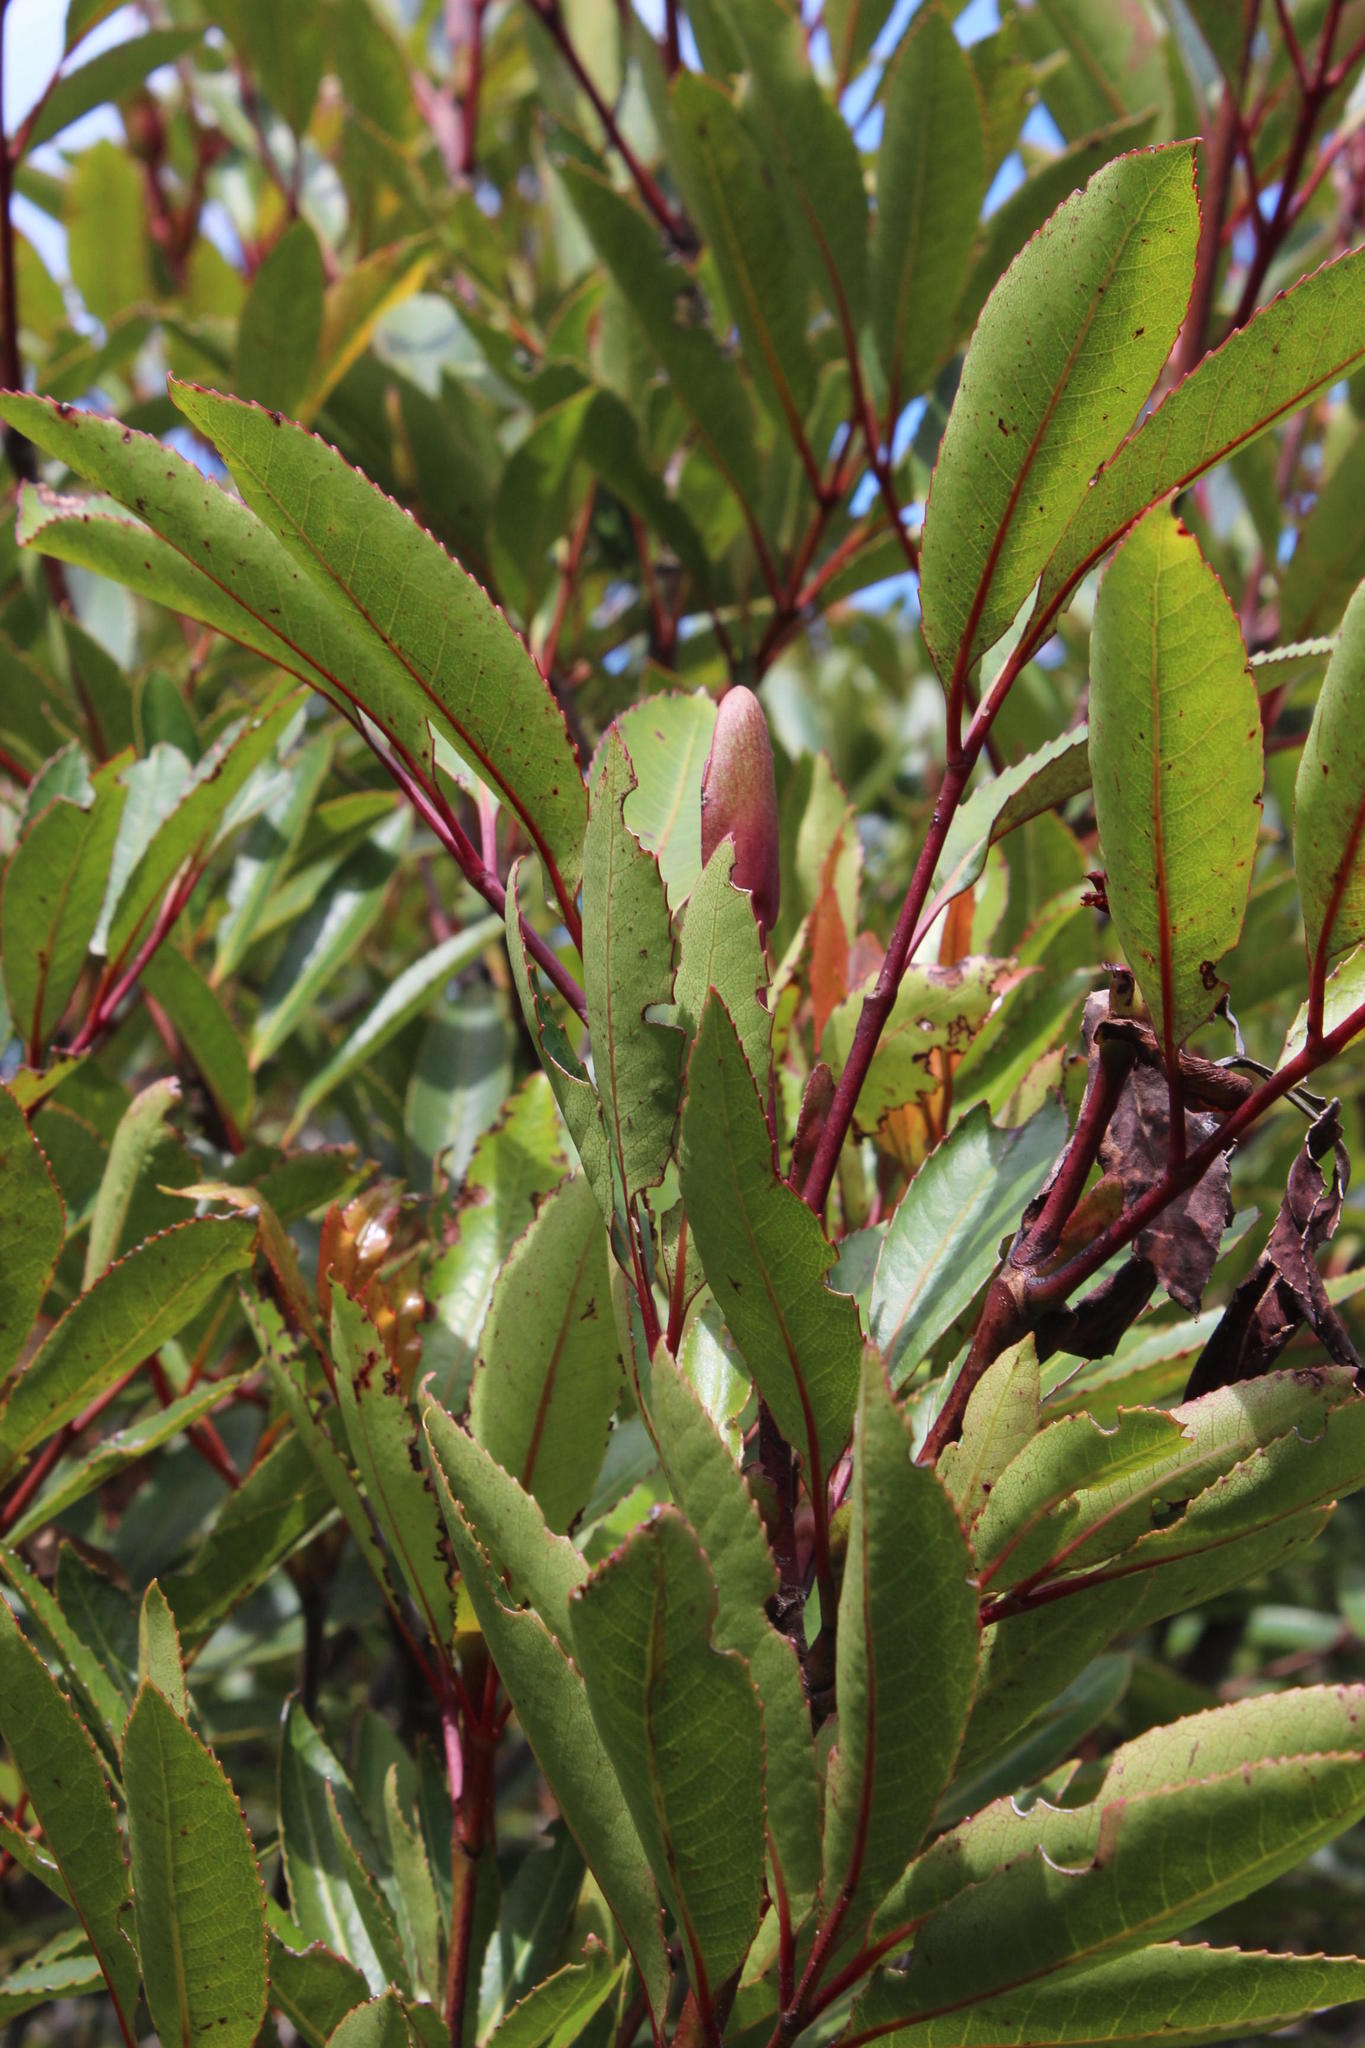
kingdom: Plantae
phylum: Tracheophyta
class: Magnoliopsida
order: Oxalidales
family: Cunoniaceae
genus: Cunonia
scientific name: Cunonia capensis
